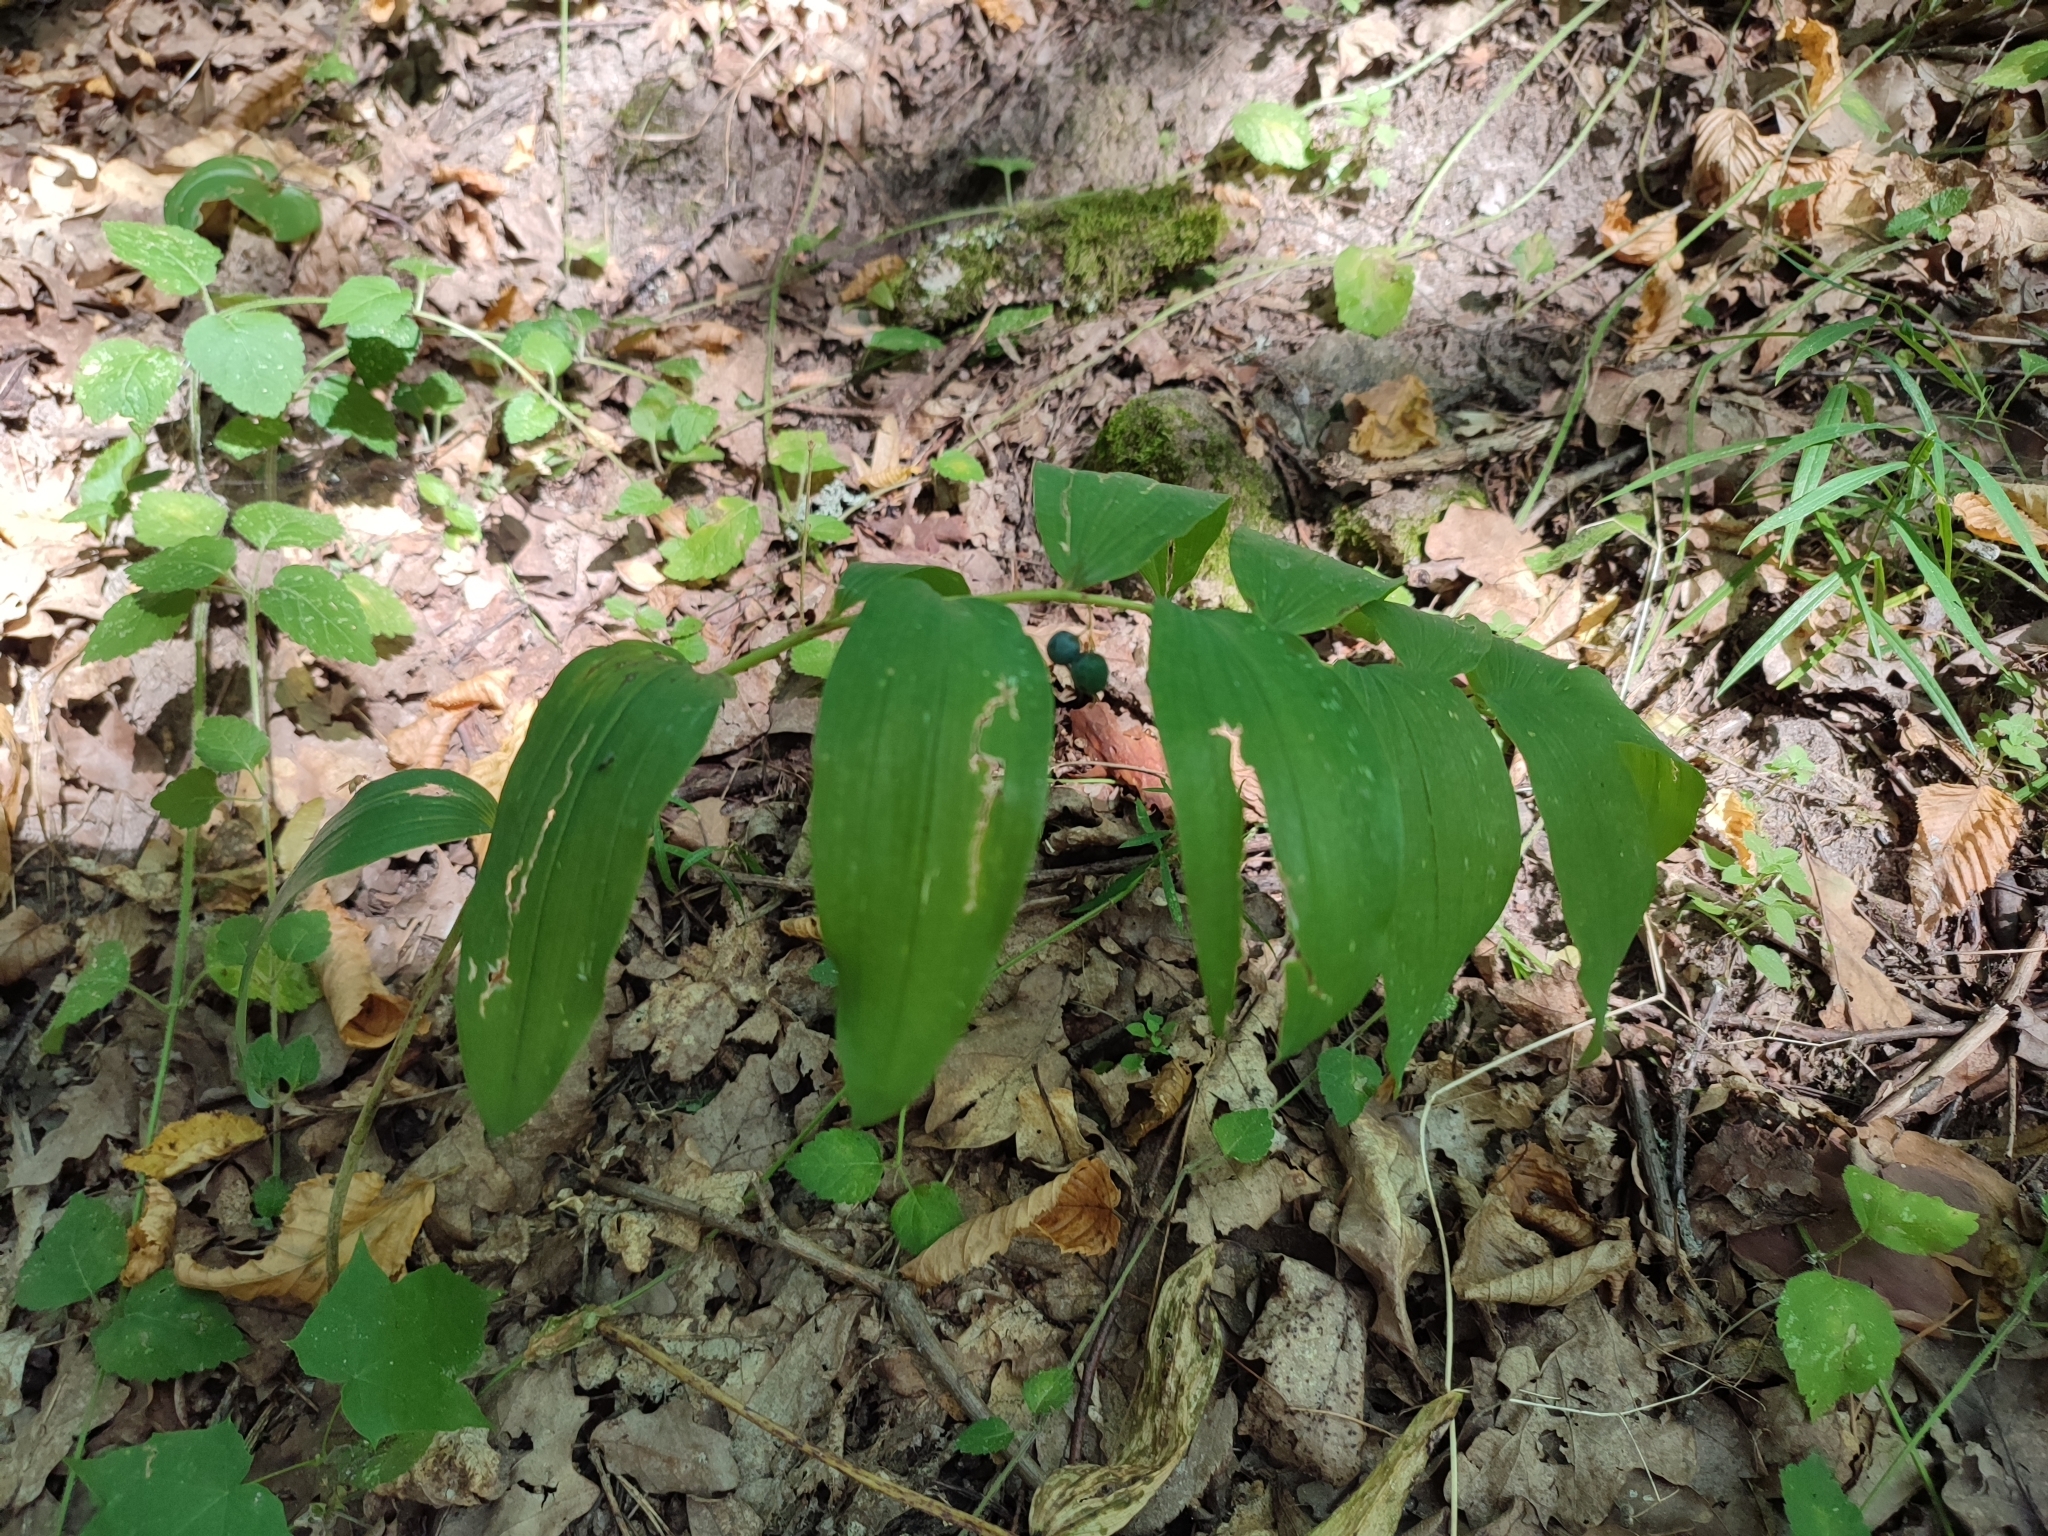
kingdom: Plantae
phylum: Tracheophyta
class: Liliopsida
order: Asparagales
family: Asparagaceae
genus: Polygonatum
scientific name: Polygonatum multiflorum
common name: Solomon's-seal
